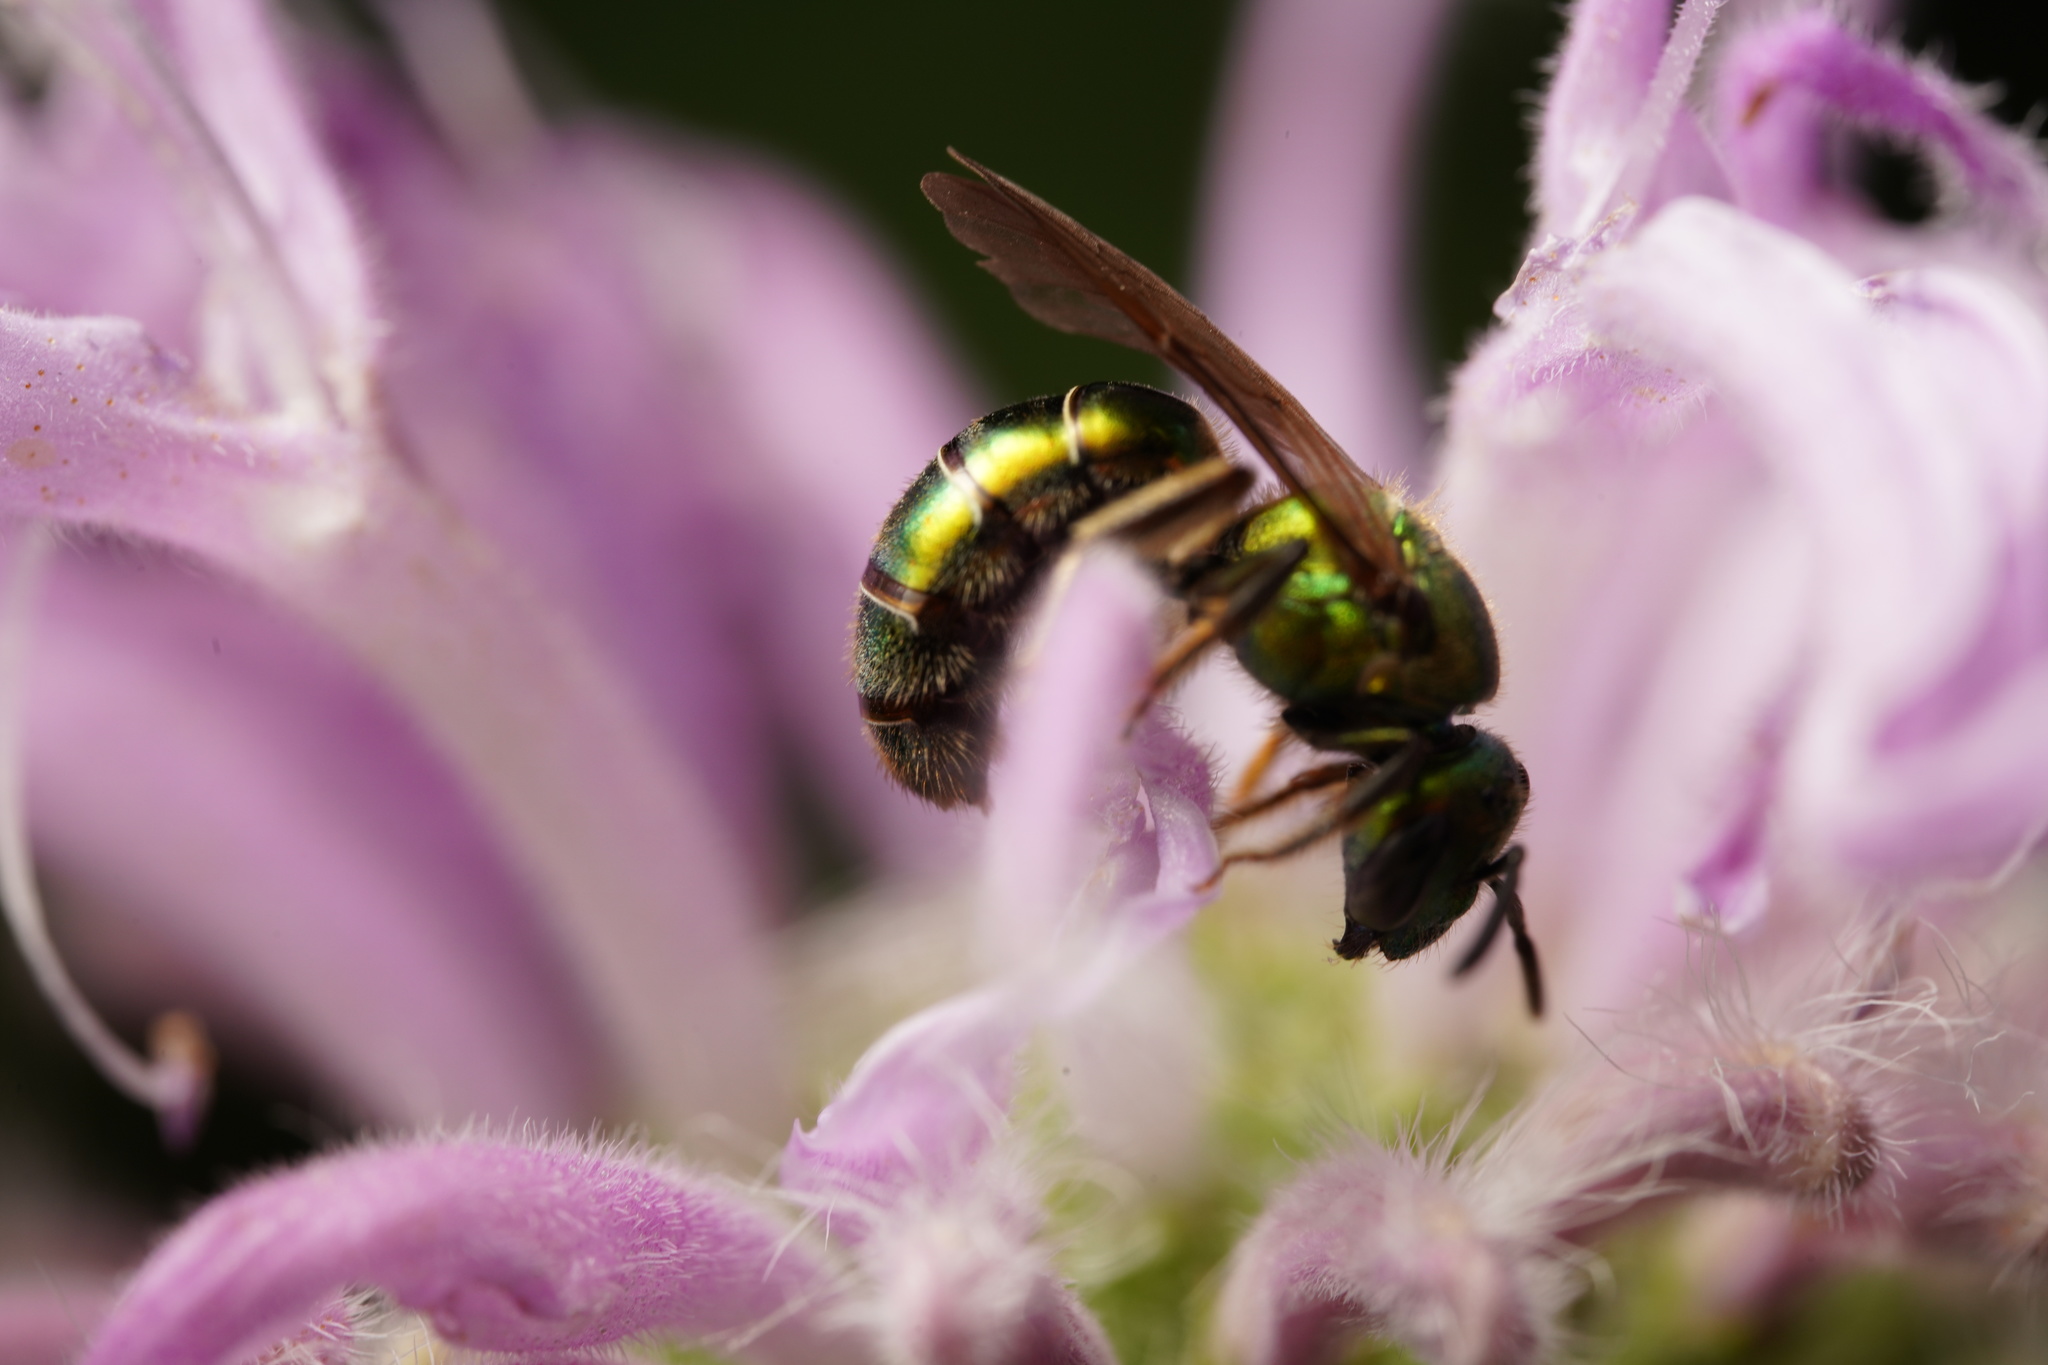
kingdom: Animalia
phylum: Arthropoda
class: Insecta
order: Hymenoptera
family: Halictidae
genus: Augochlora
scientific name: Augochlora pura
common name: Pure green sweat bee
